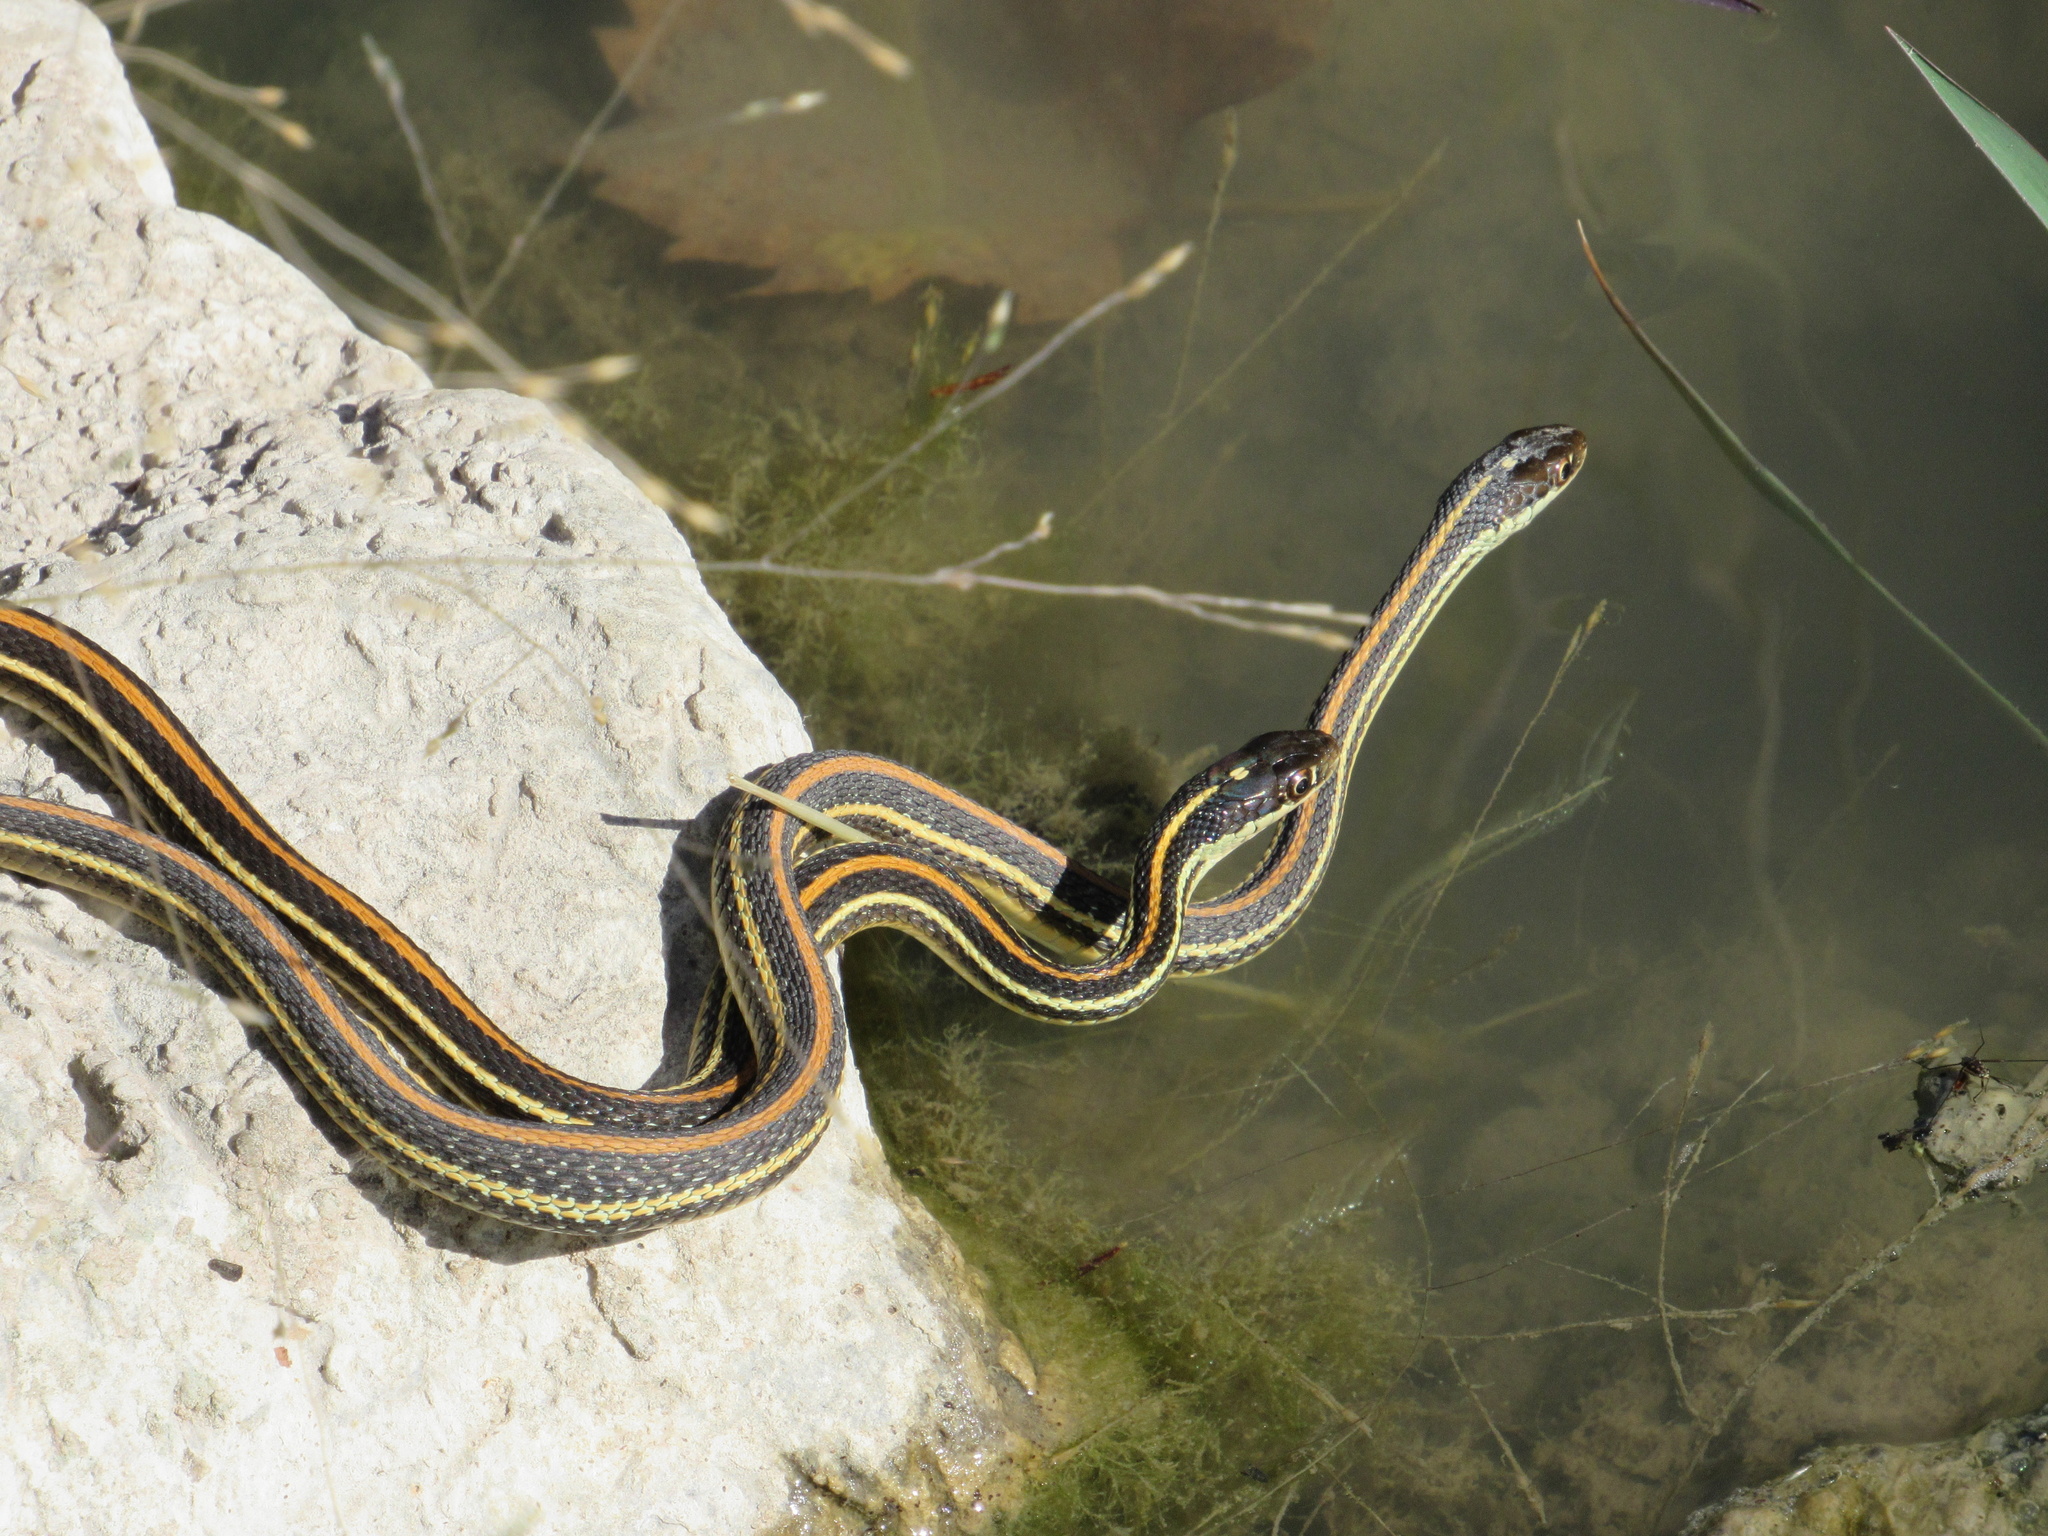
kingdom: Animalia
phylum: Chordata
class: Squamata
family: Colubridae
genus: Thamnophis
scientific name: Thamnophis proximus
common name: Western ribbon snake
